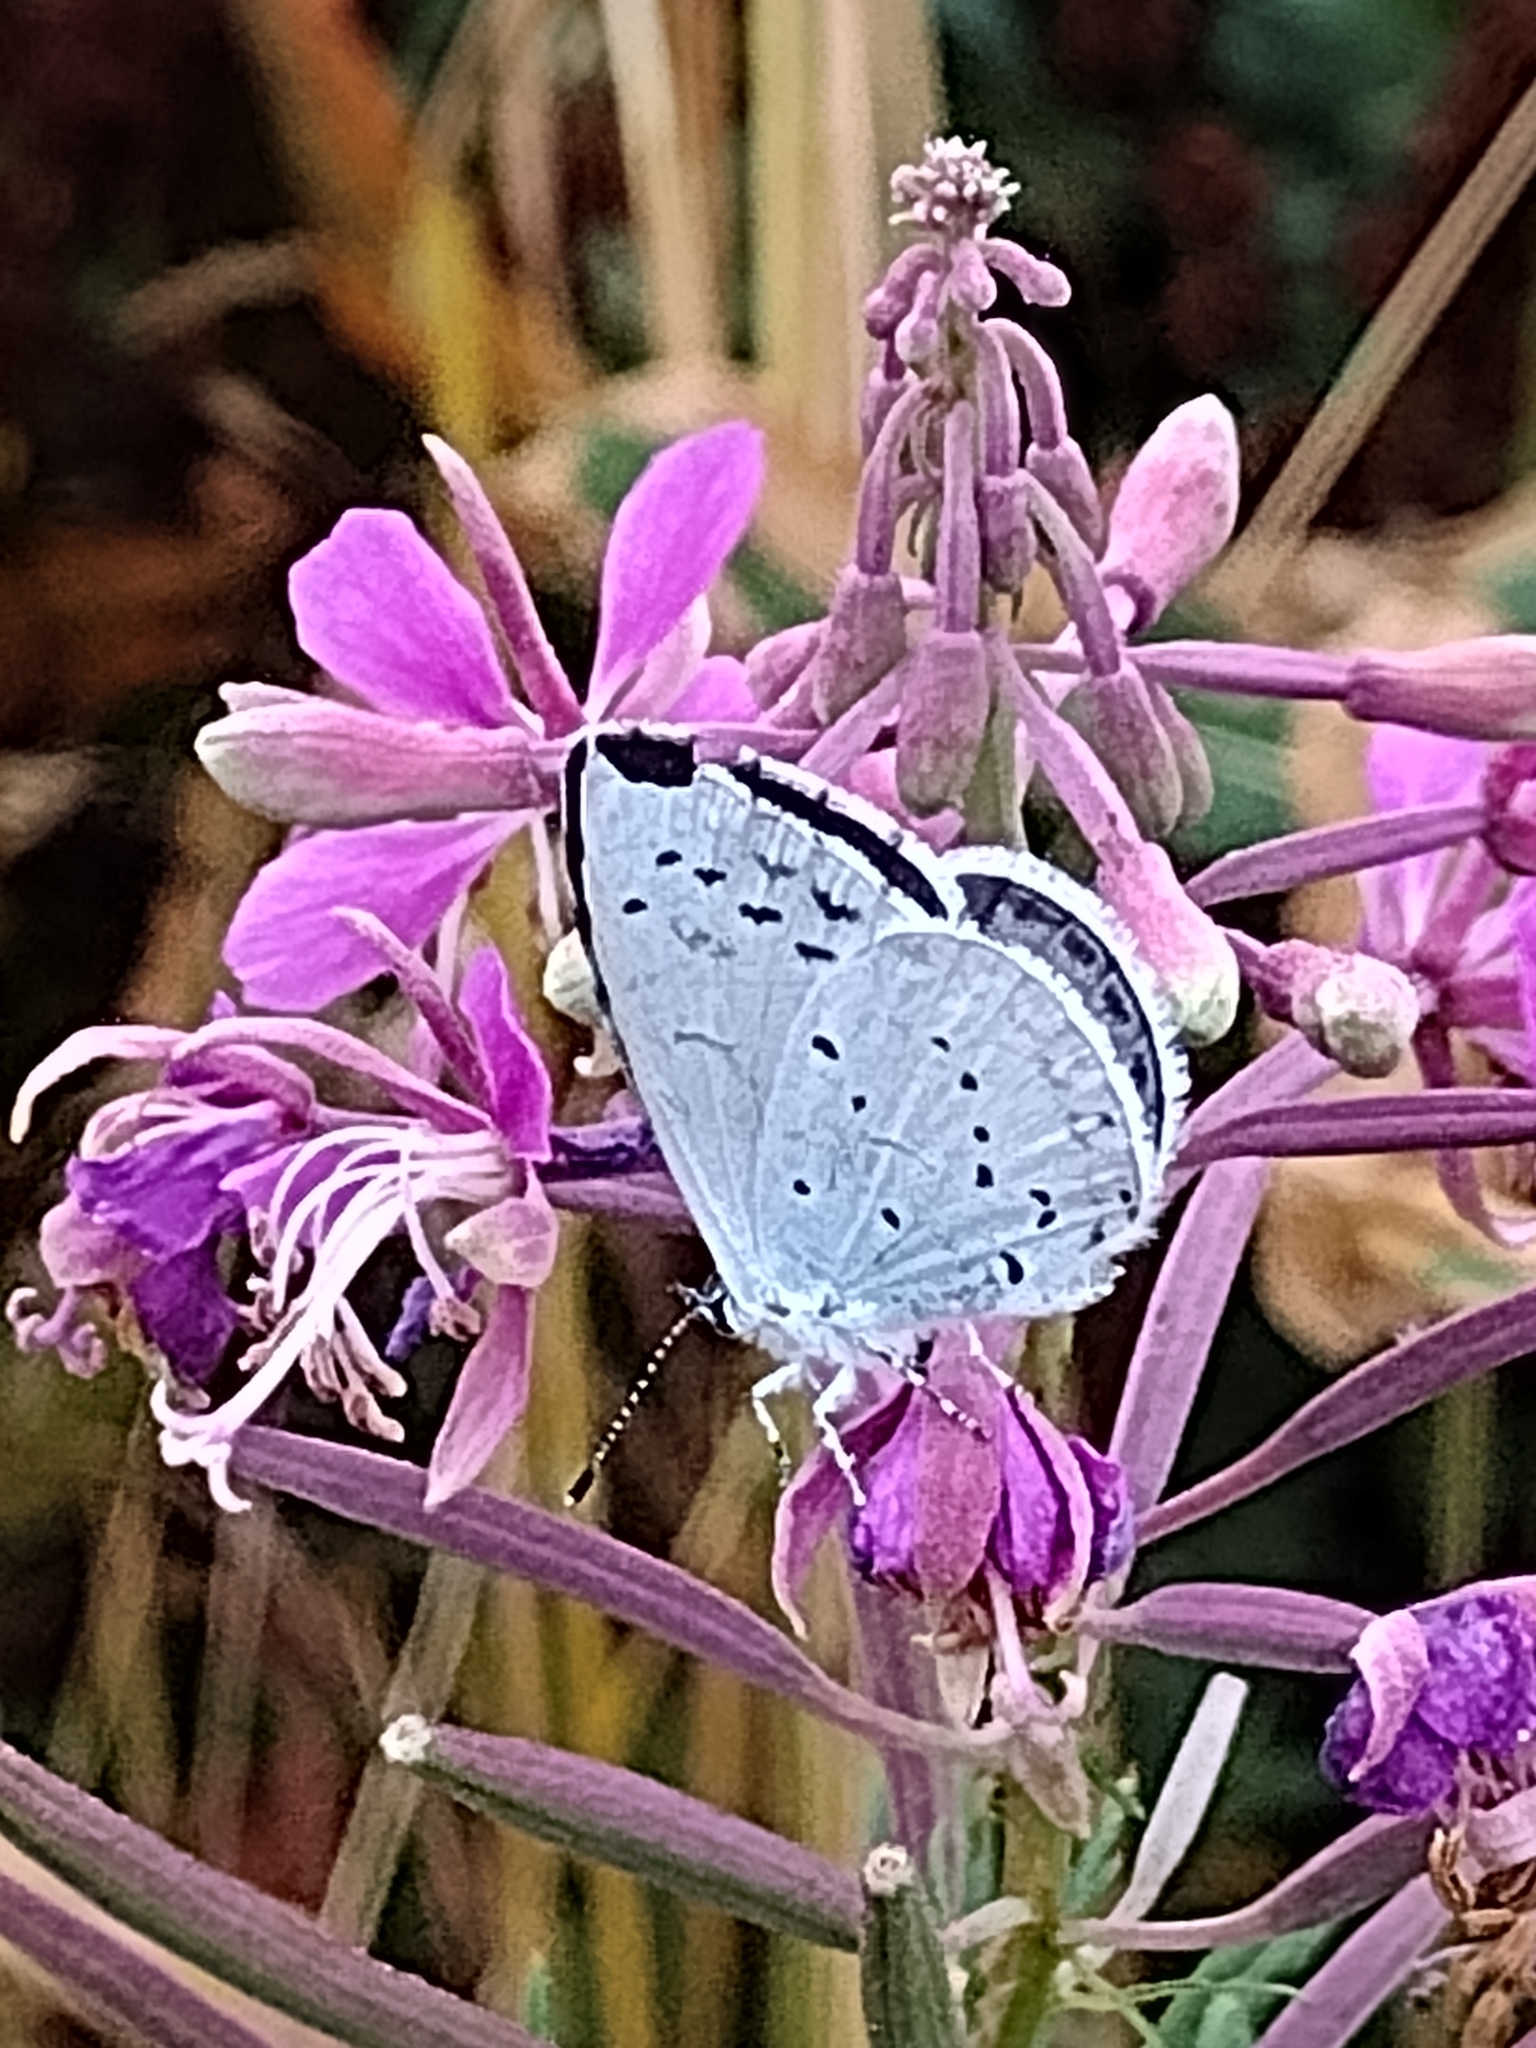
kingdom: Animalia
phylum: Arthropoda
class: Insecta
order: Lepidoptera
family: Lycaenidae
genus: Celastrina
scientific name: Celastrina argiolus
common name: Holly blue
